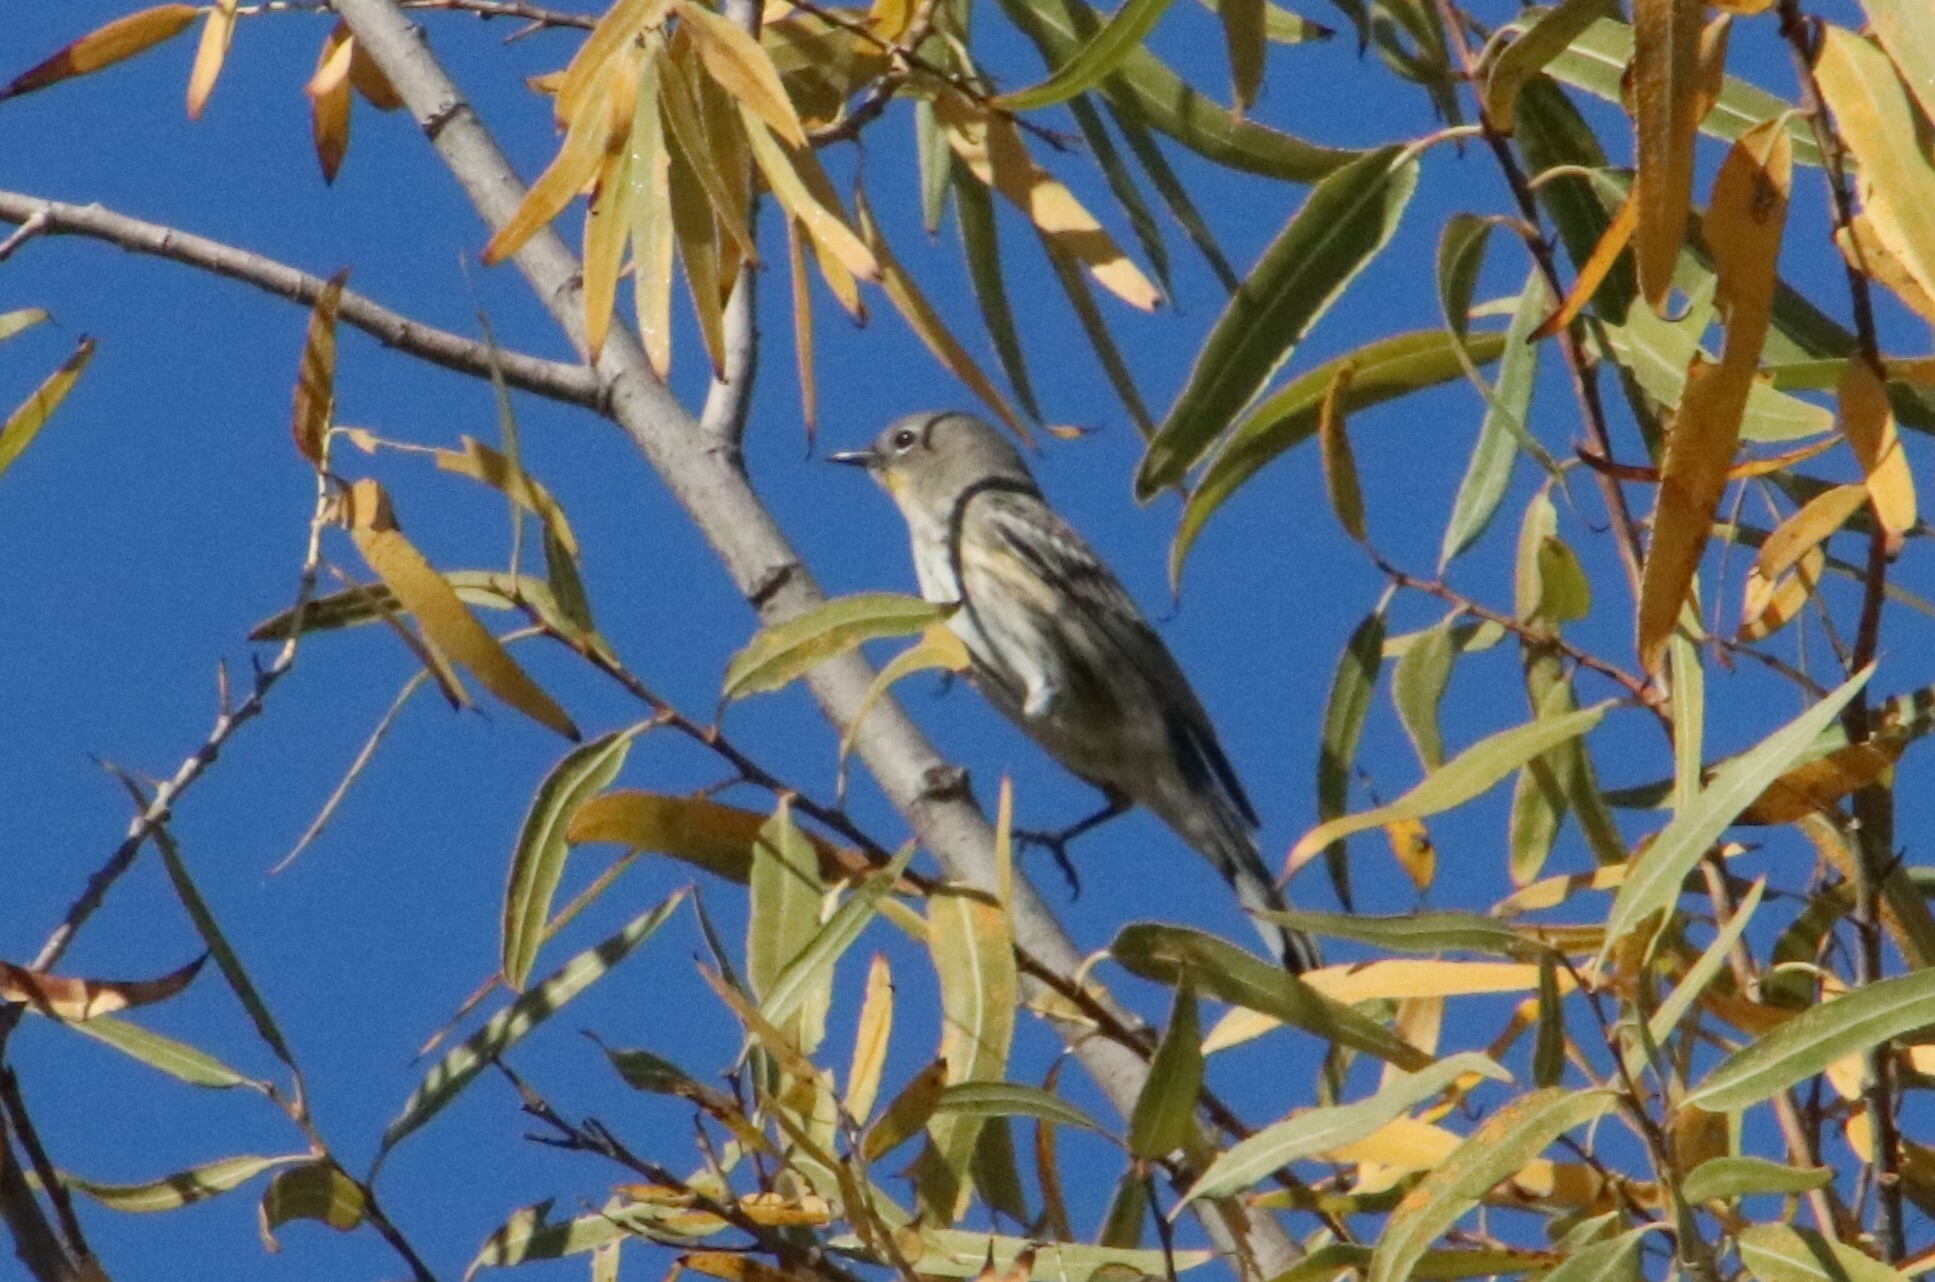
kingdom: Animalia
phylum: Chordata
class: Aves
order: Passeriformes
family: Parulidae
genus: Setophaga
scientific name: Setophaga auduboni
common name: Audubon's warbler
